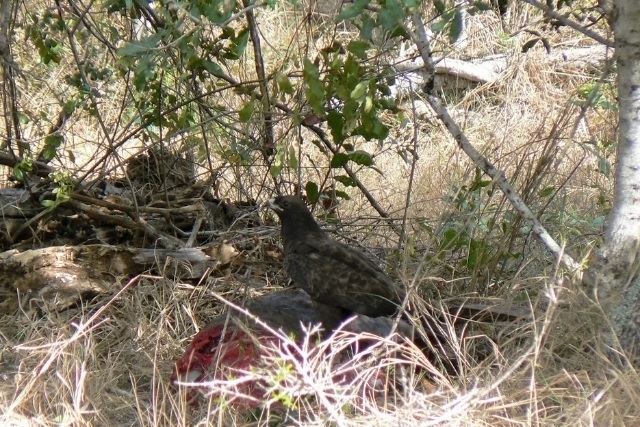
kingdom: Animalia
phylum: Chordata
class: Aves
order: Accipitriformes
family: Accipitridae
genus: Hieraaetus
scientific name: Hieraaetus wahlbergi
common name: Wahlberg's eagle
